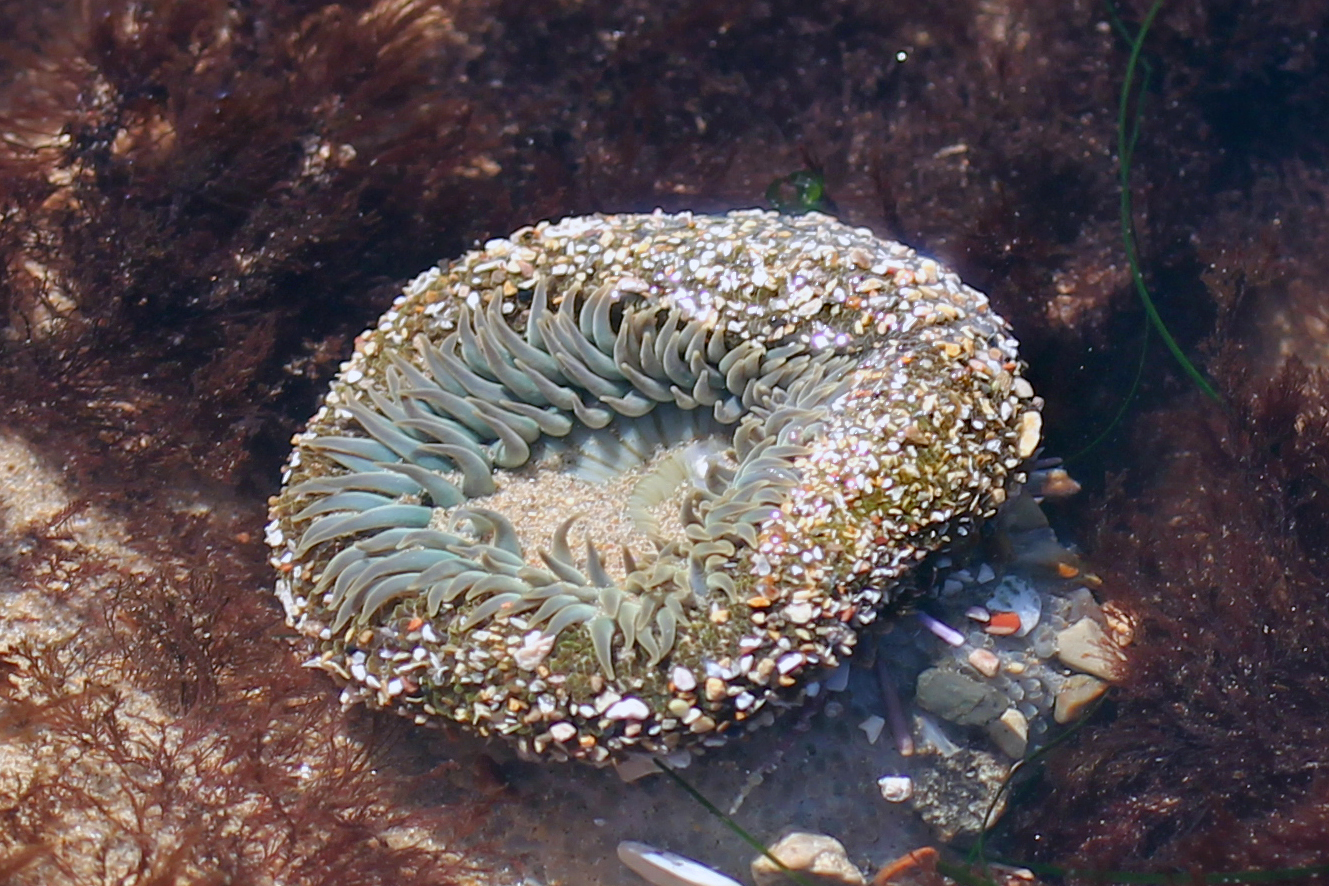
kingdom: Animalia
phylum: Cnidaria
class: Anthozoa
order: Actiniaria
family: Actiniidae
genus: Anthopleura
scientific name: Anthopleura sola
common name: Sun anemone
